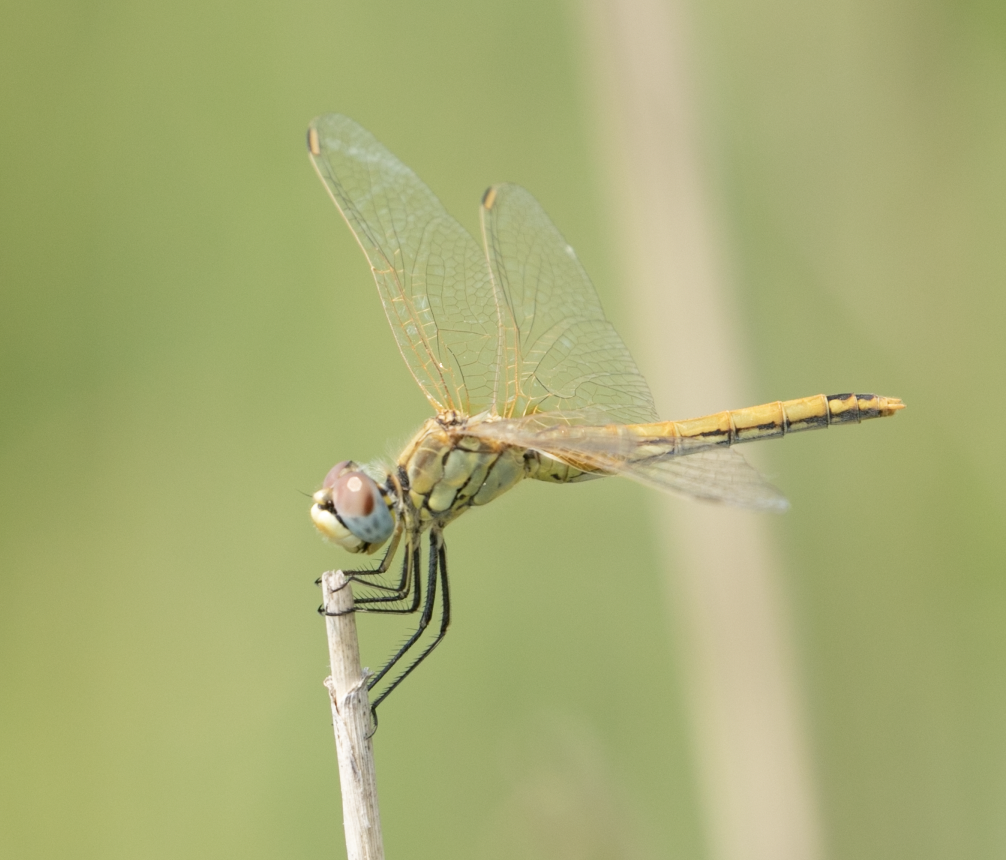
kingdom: Animalia
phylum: Arthropoda
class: Insecta
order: Odonata
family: Libellulidae
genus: Sympetrum
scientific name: Sympetrum fonscolombii
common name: Red-veined darter
